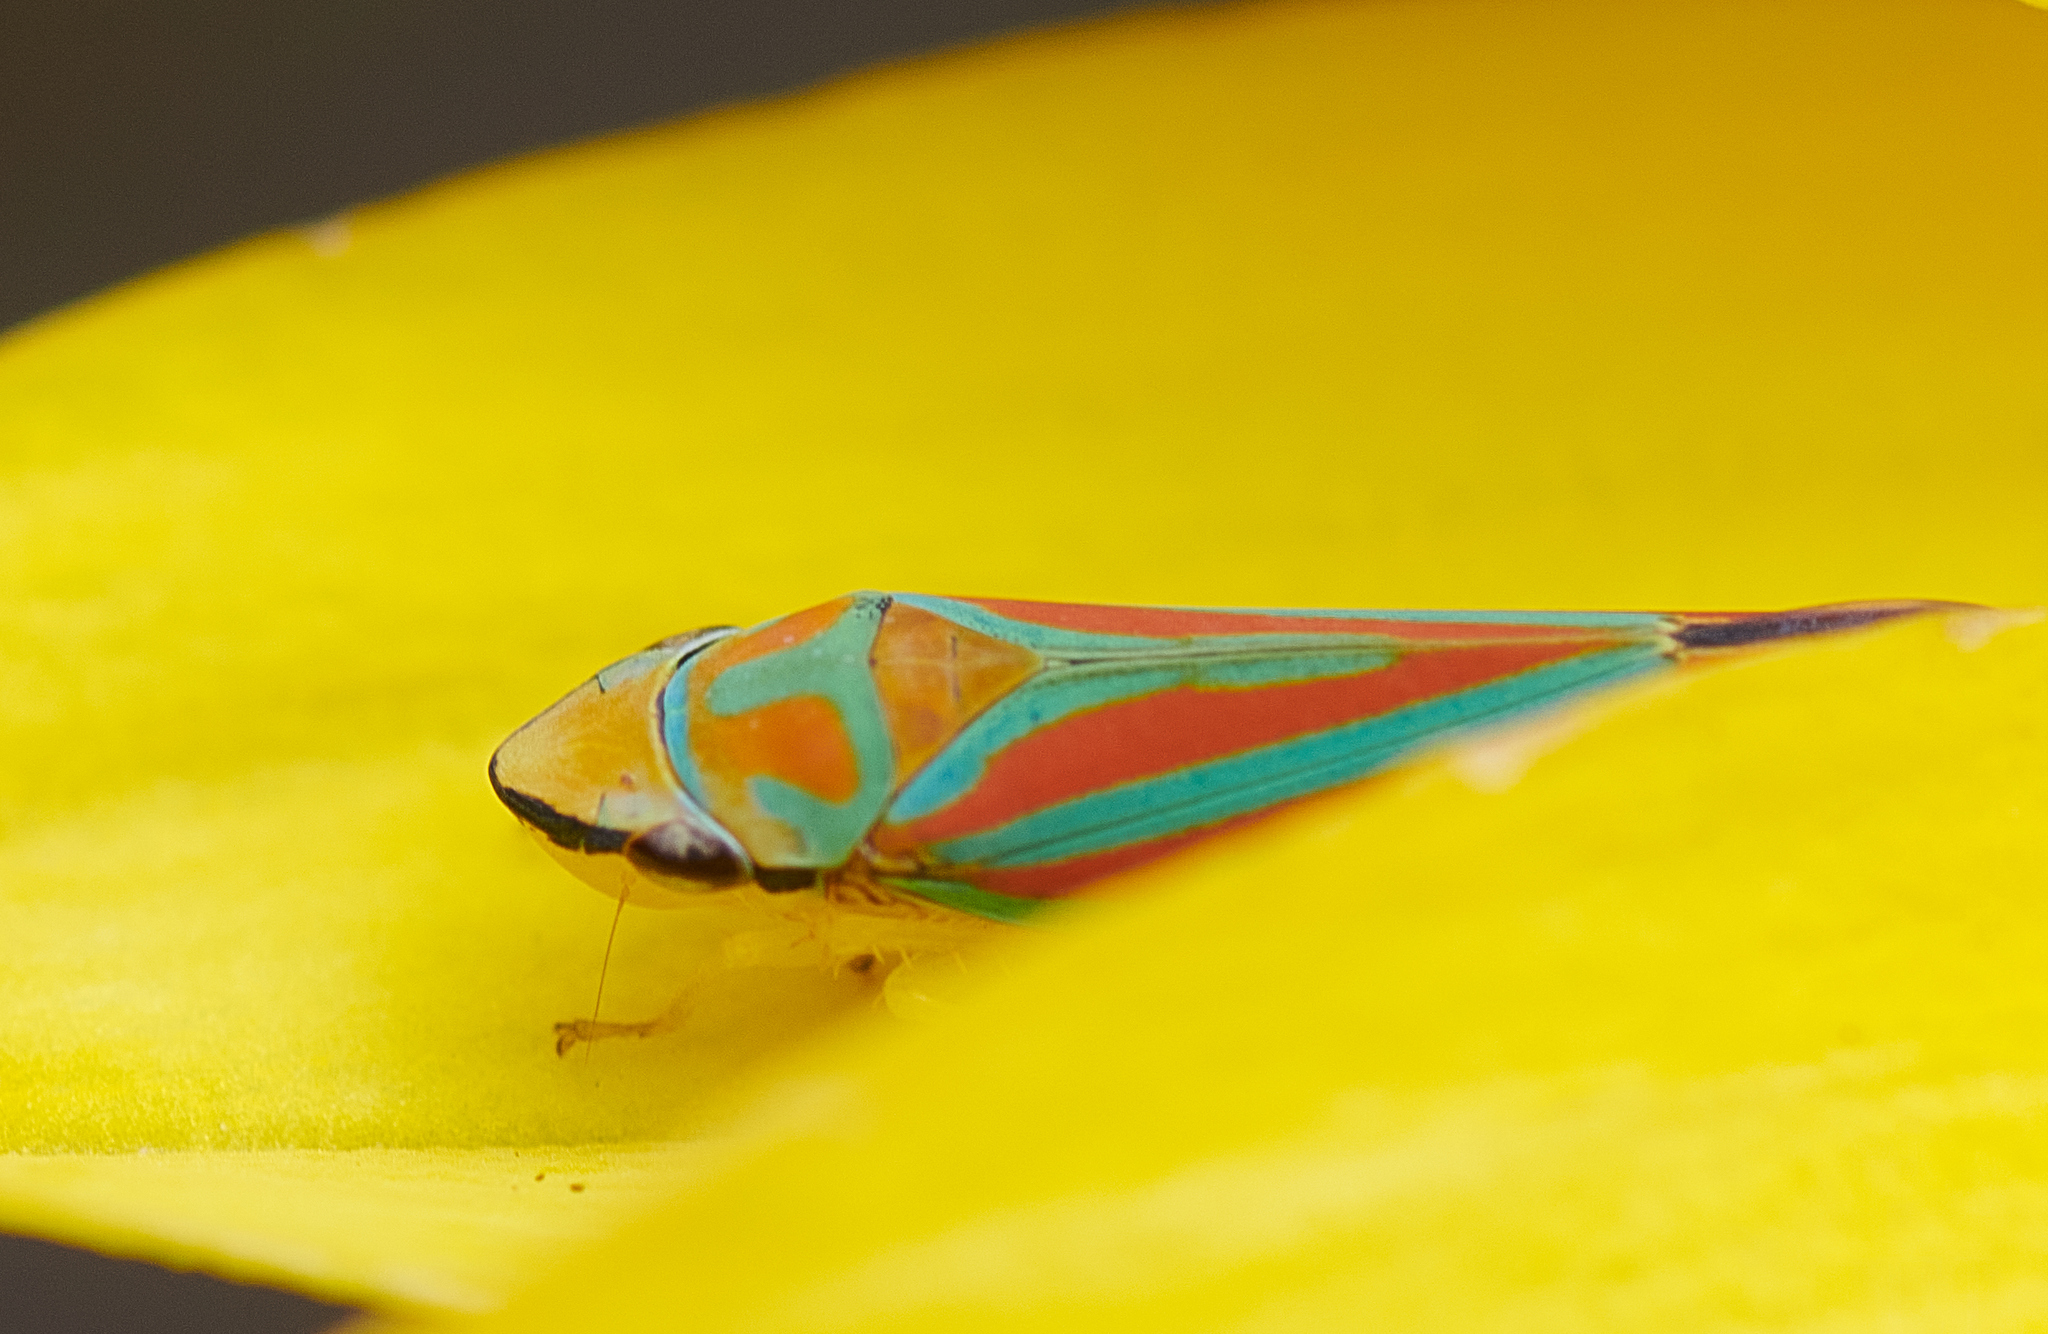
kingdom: Animalia
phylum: Arthropoda
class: Insecta
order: Hemiptera
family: Cicadellidae
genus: Graphocephala
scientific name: Graphocephala coccinea
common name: Candy-striped leafhopper
